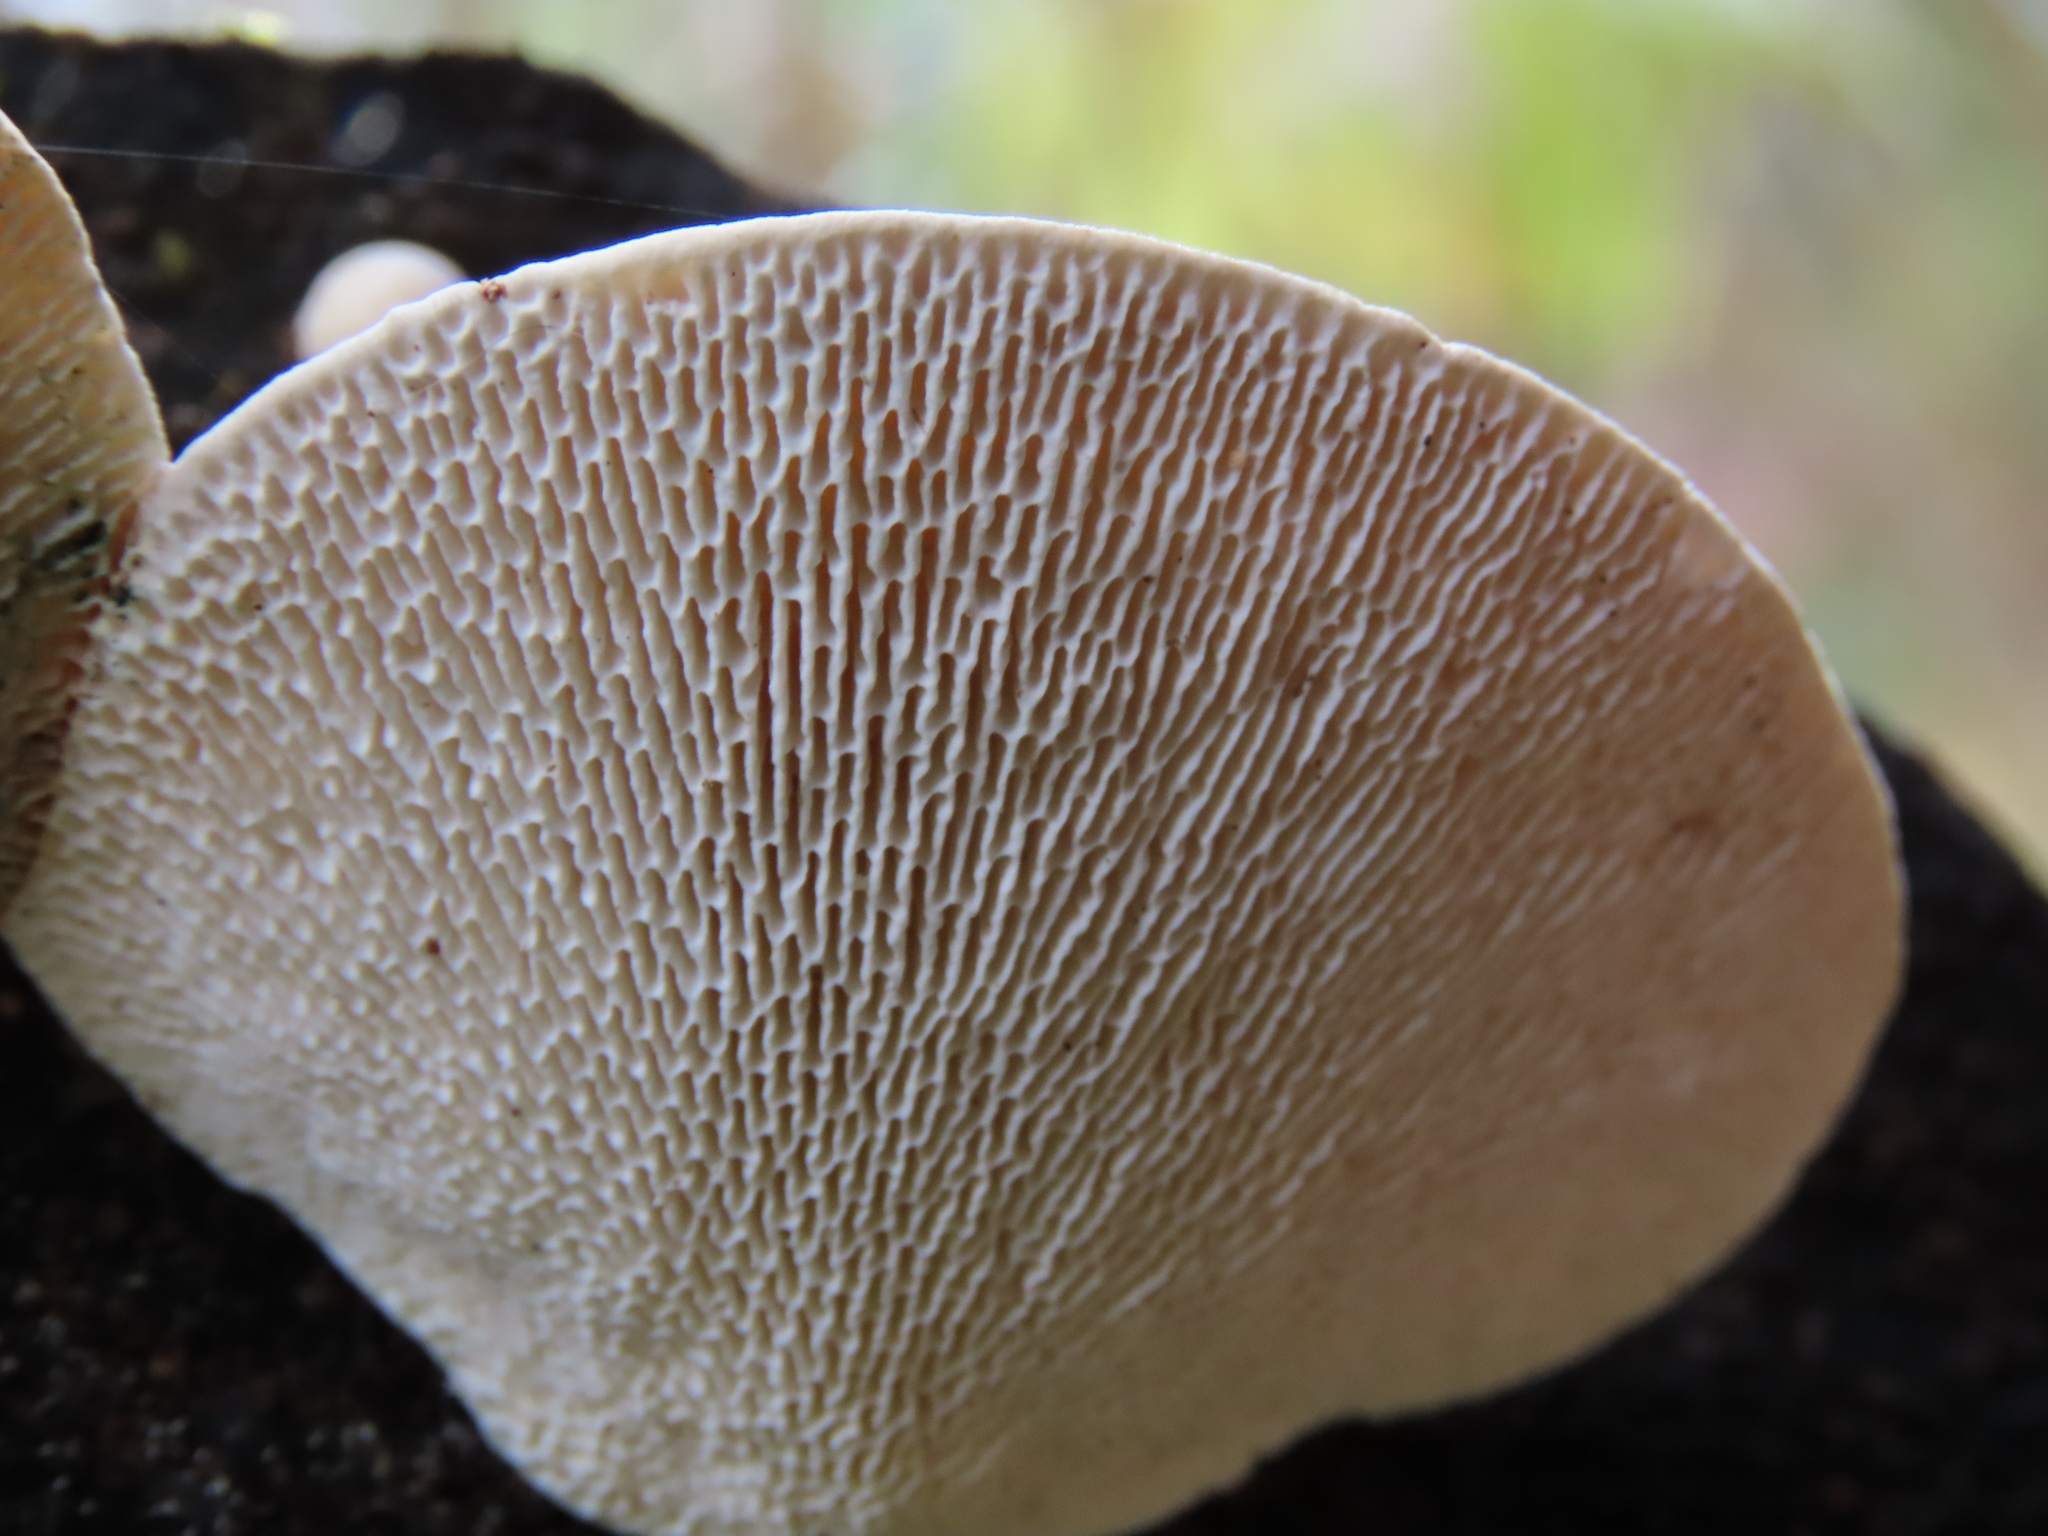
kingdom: Fungi
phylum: Basidiomycota
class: Agaricomycetes
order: Polyporales
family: Polyporaceae
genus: Trametes
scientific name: Trametes gibbosa
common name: Lumpy bracket
